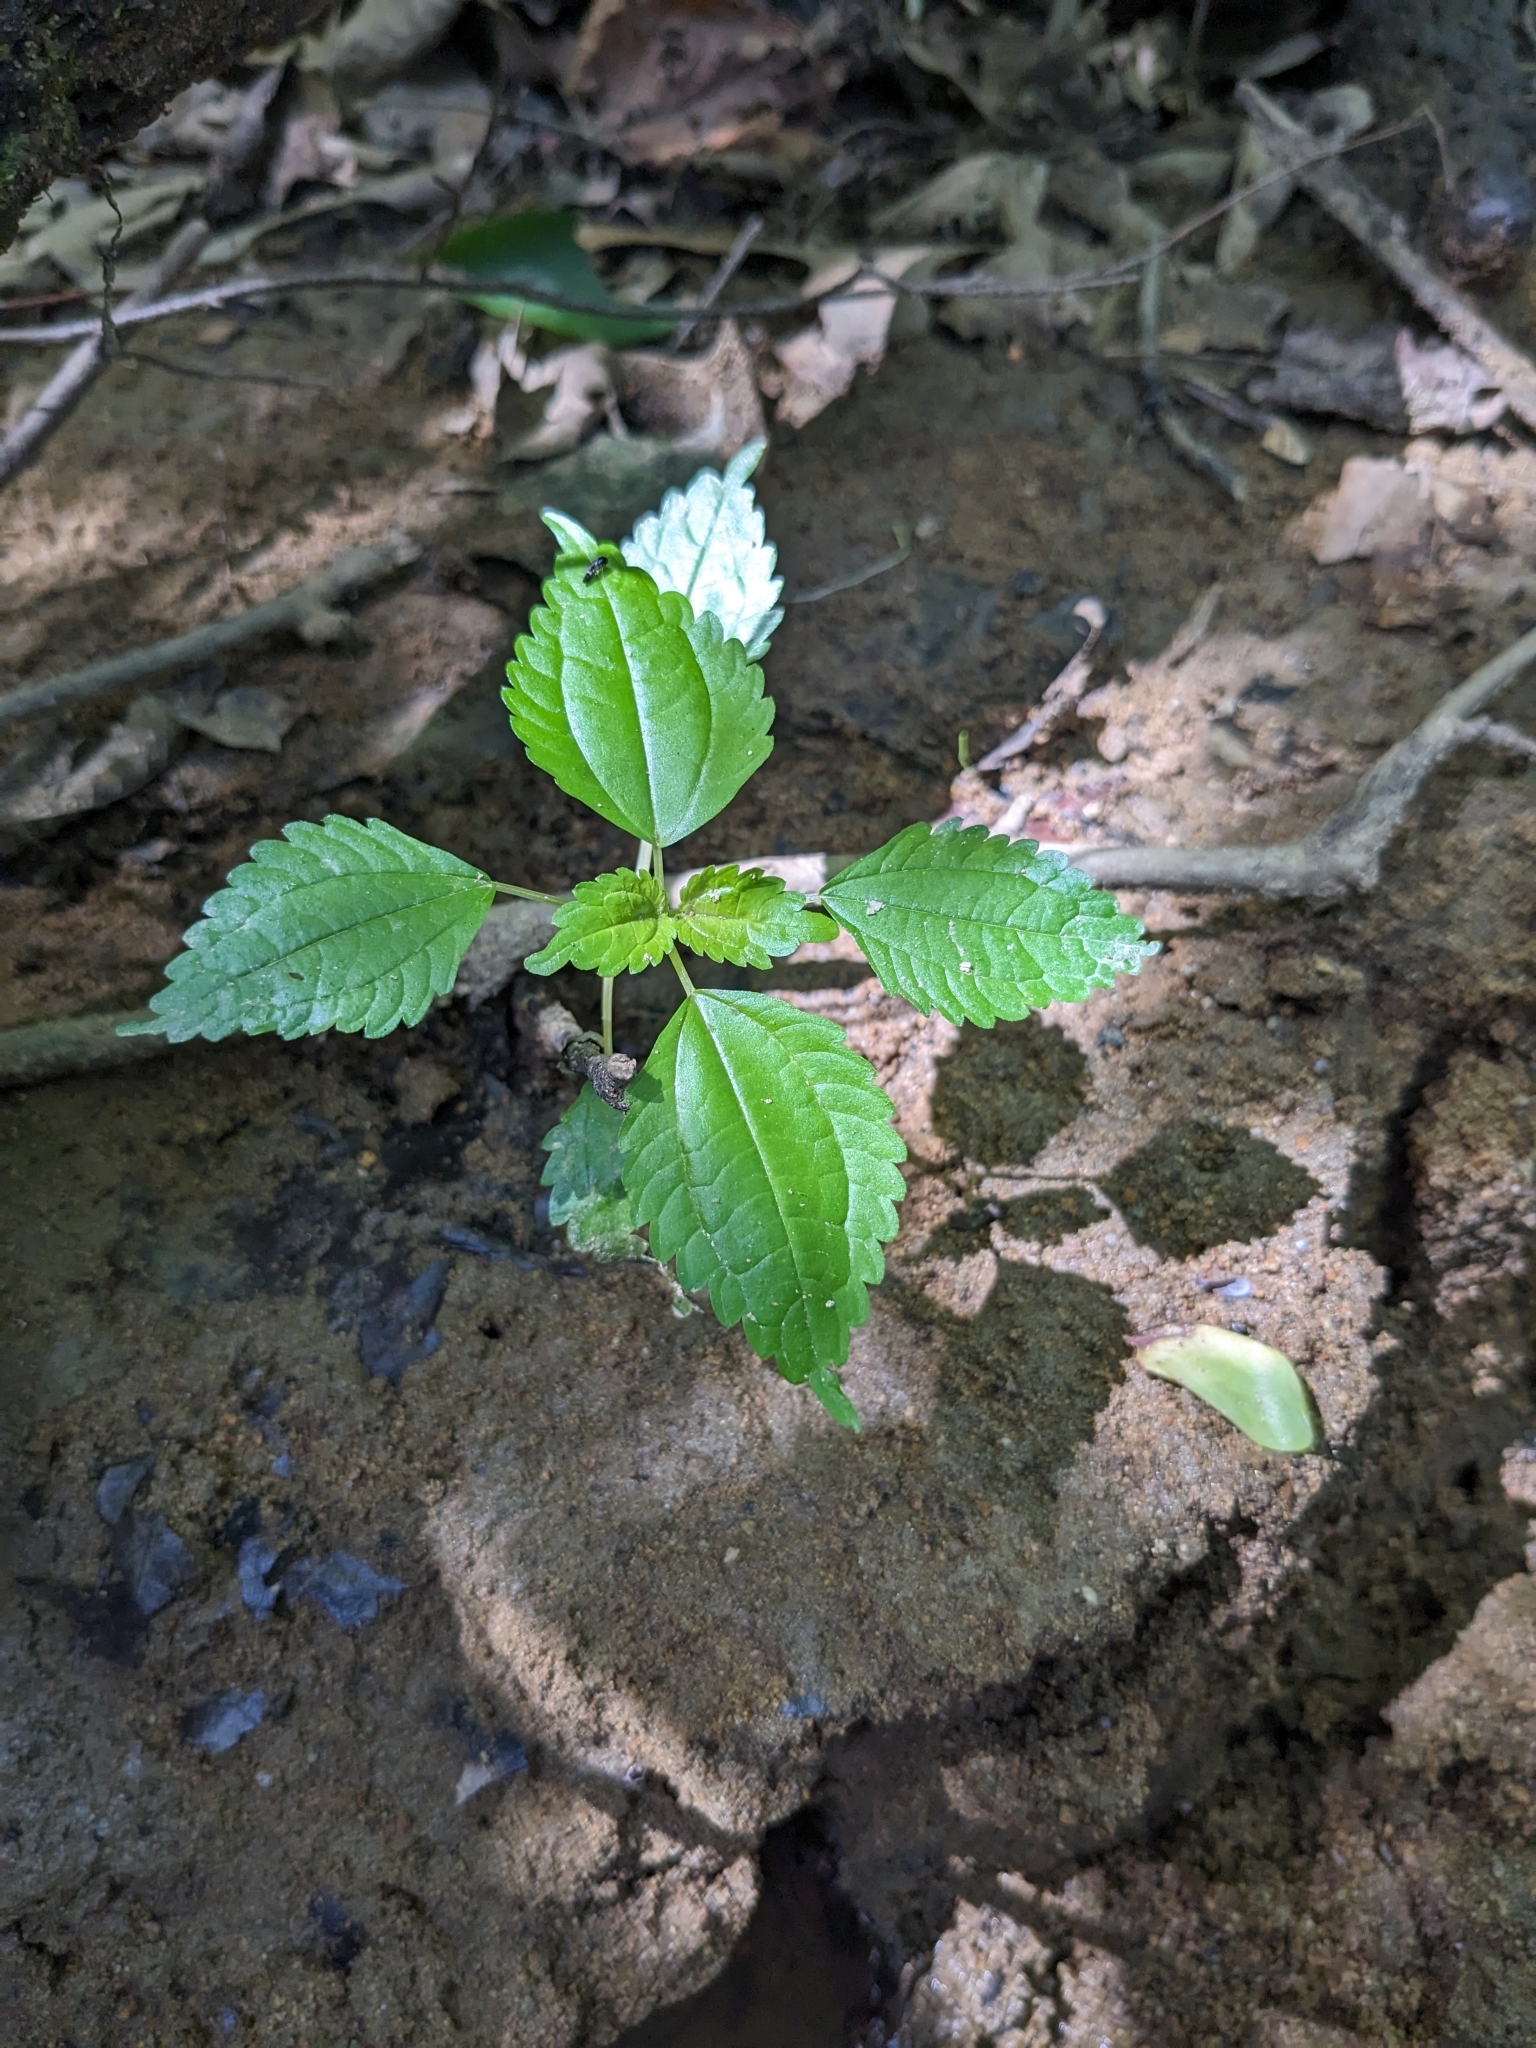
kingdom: Plantae
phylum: Tracheophyta
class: Magnoliopsida
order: Rosales
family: Urticaceae
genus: Pilea
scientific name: Pilea pumila
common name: Clearweed
